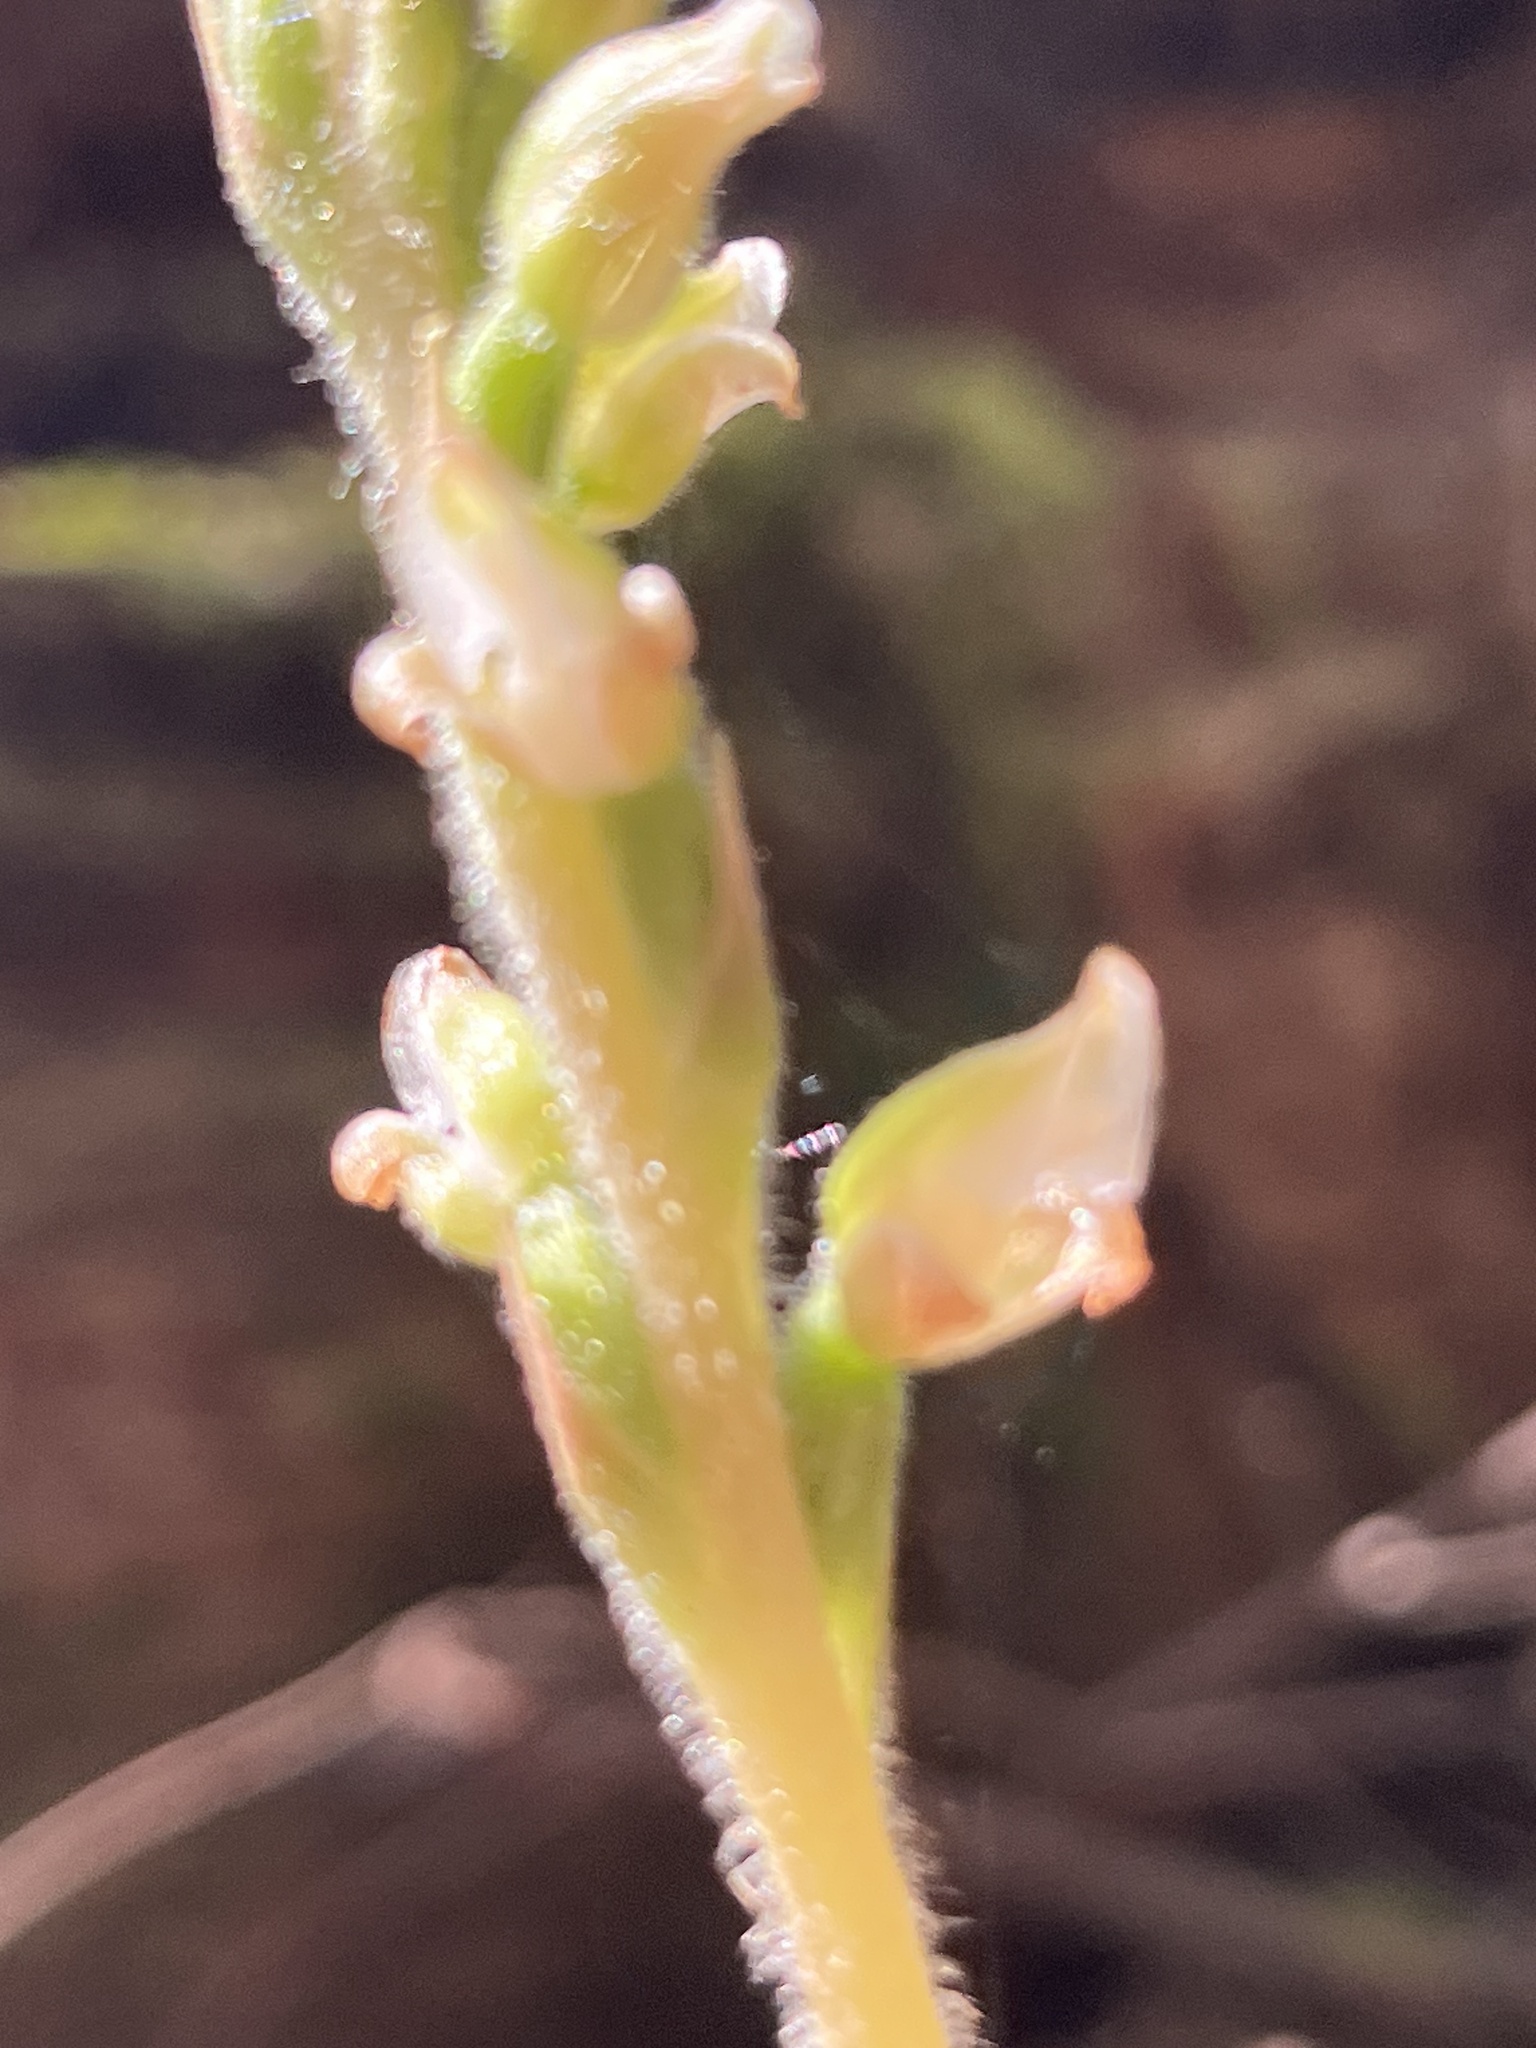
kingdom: Plantae
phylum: Tracheophyta
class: Liliopsida
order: Asparagales
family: Orchidaceae
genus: Goodyera
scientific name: Goodyera oblongifolia
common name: Giant rattlesnake-plantain
